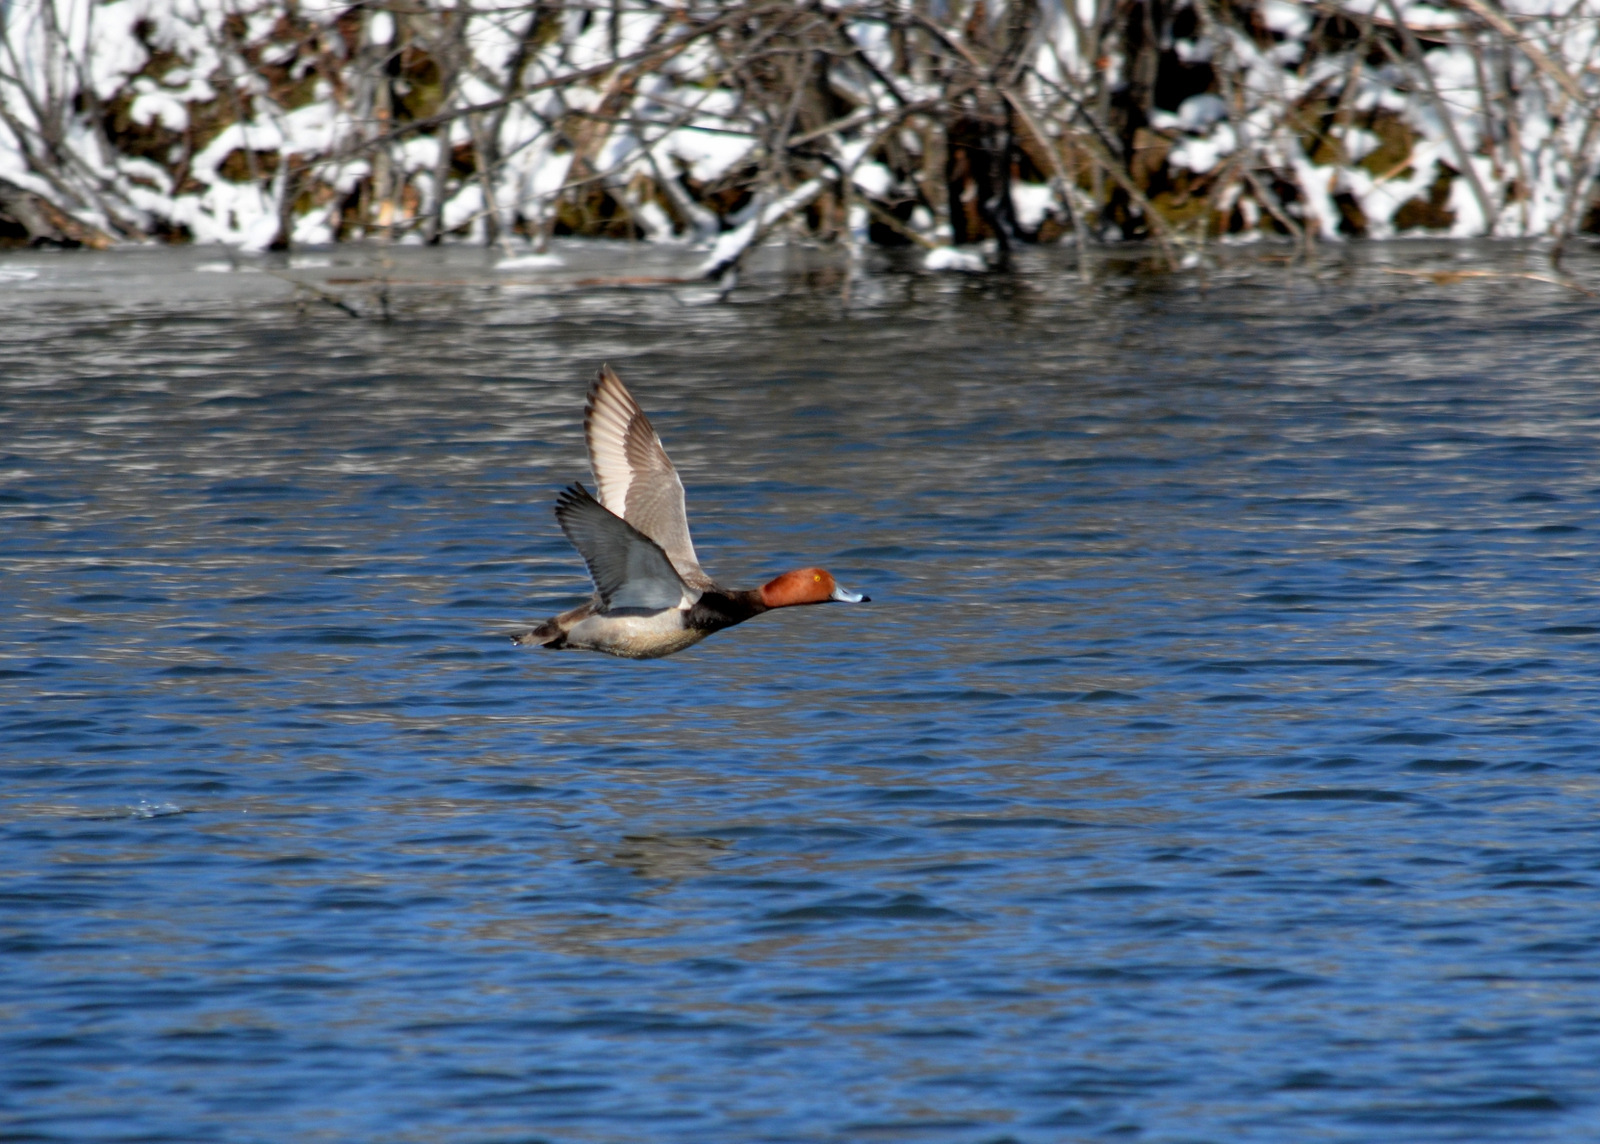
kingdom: Animalia
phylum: Chordata
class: Aves
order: Anseriformes
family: Anatidae
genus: Aythya
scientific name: Aythya americana
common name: Redhead
